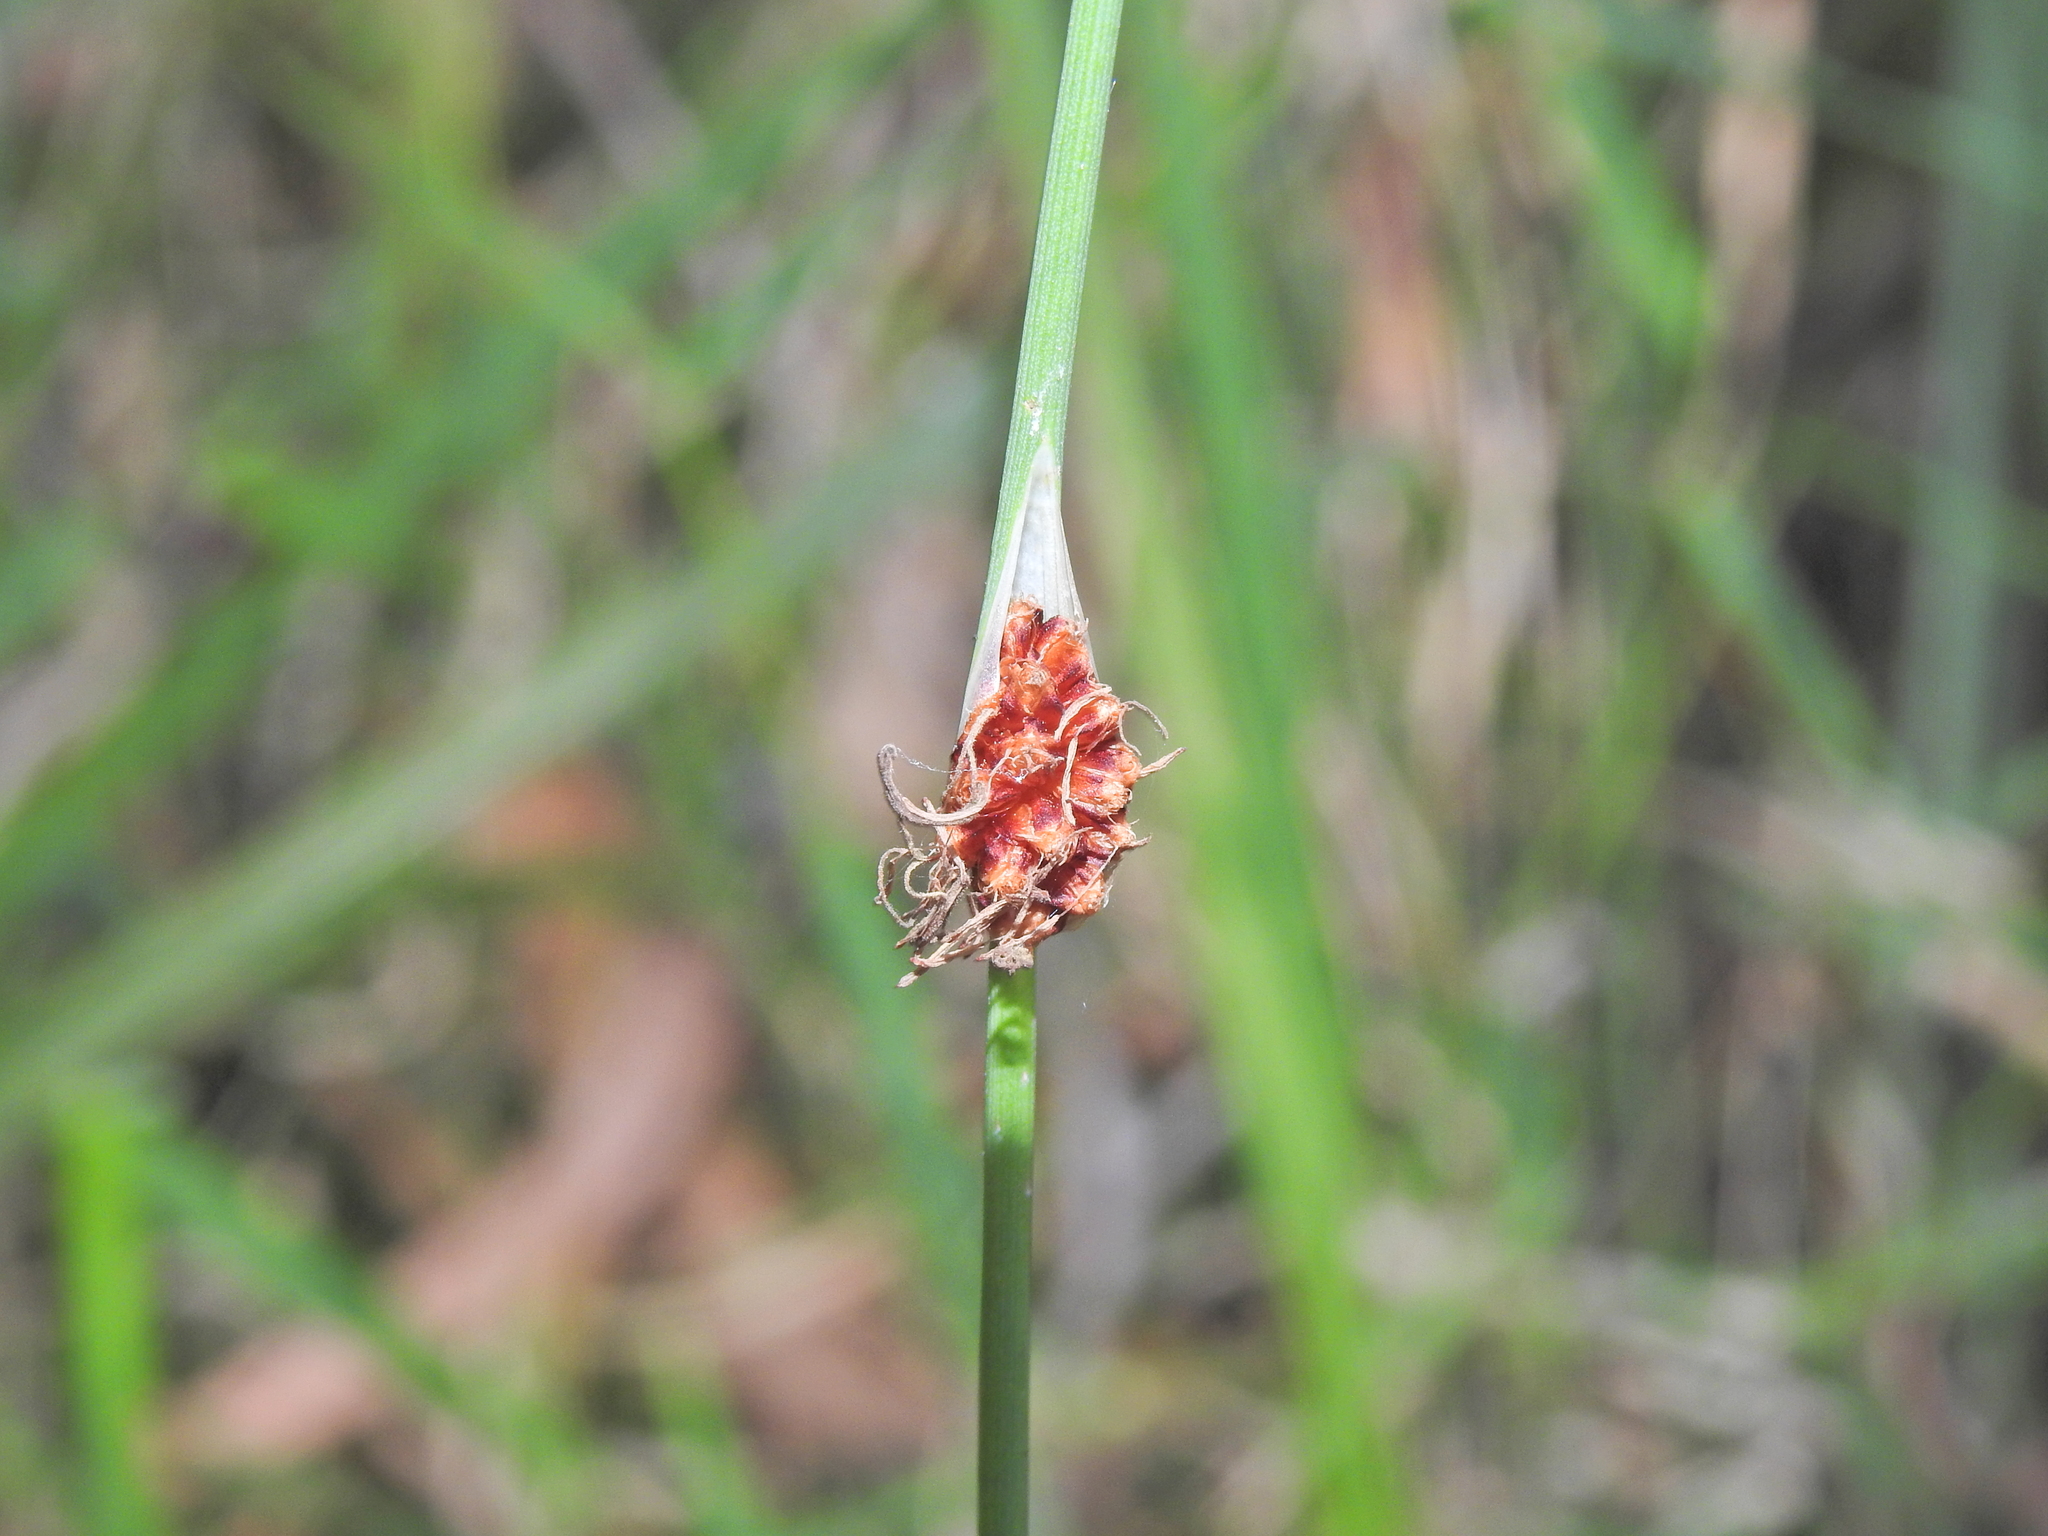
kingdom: Plantae
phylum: Tracheophyta
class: Liliopsida
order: Poales
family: Cyperaceae
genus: Chorizandra
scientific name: Chorizandra cymbaria
